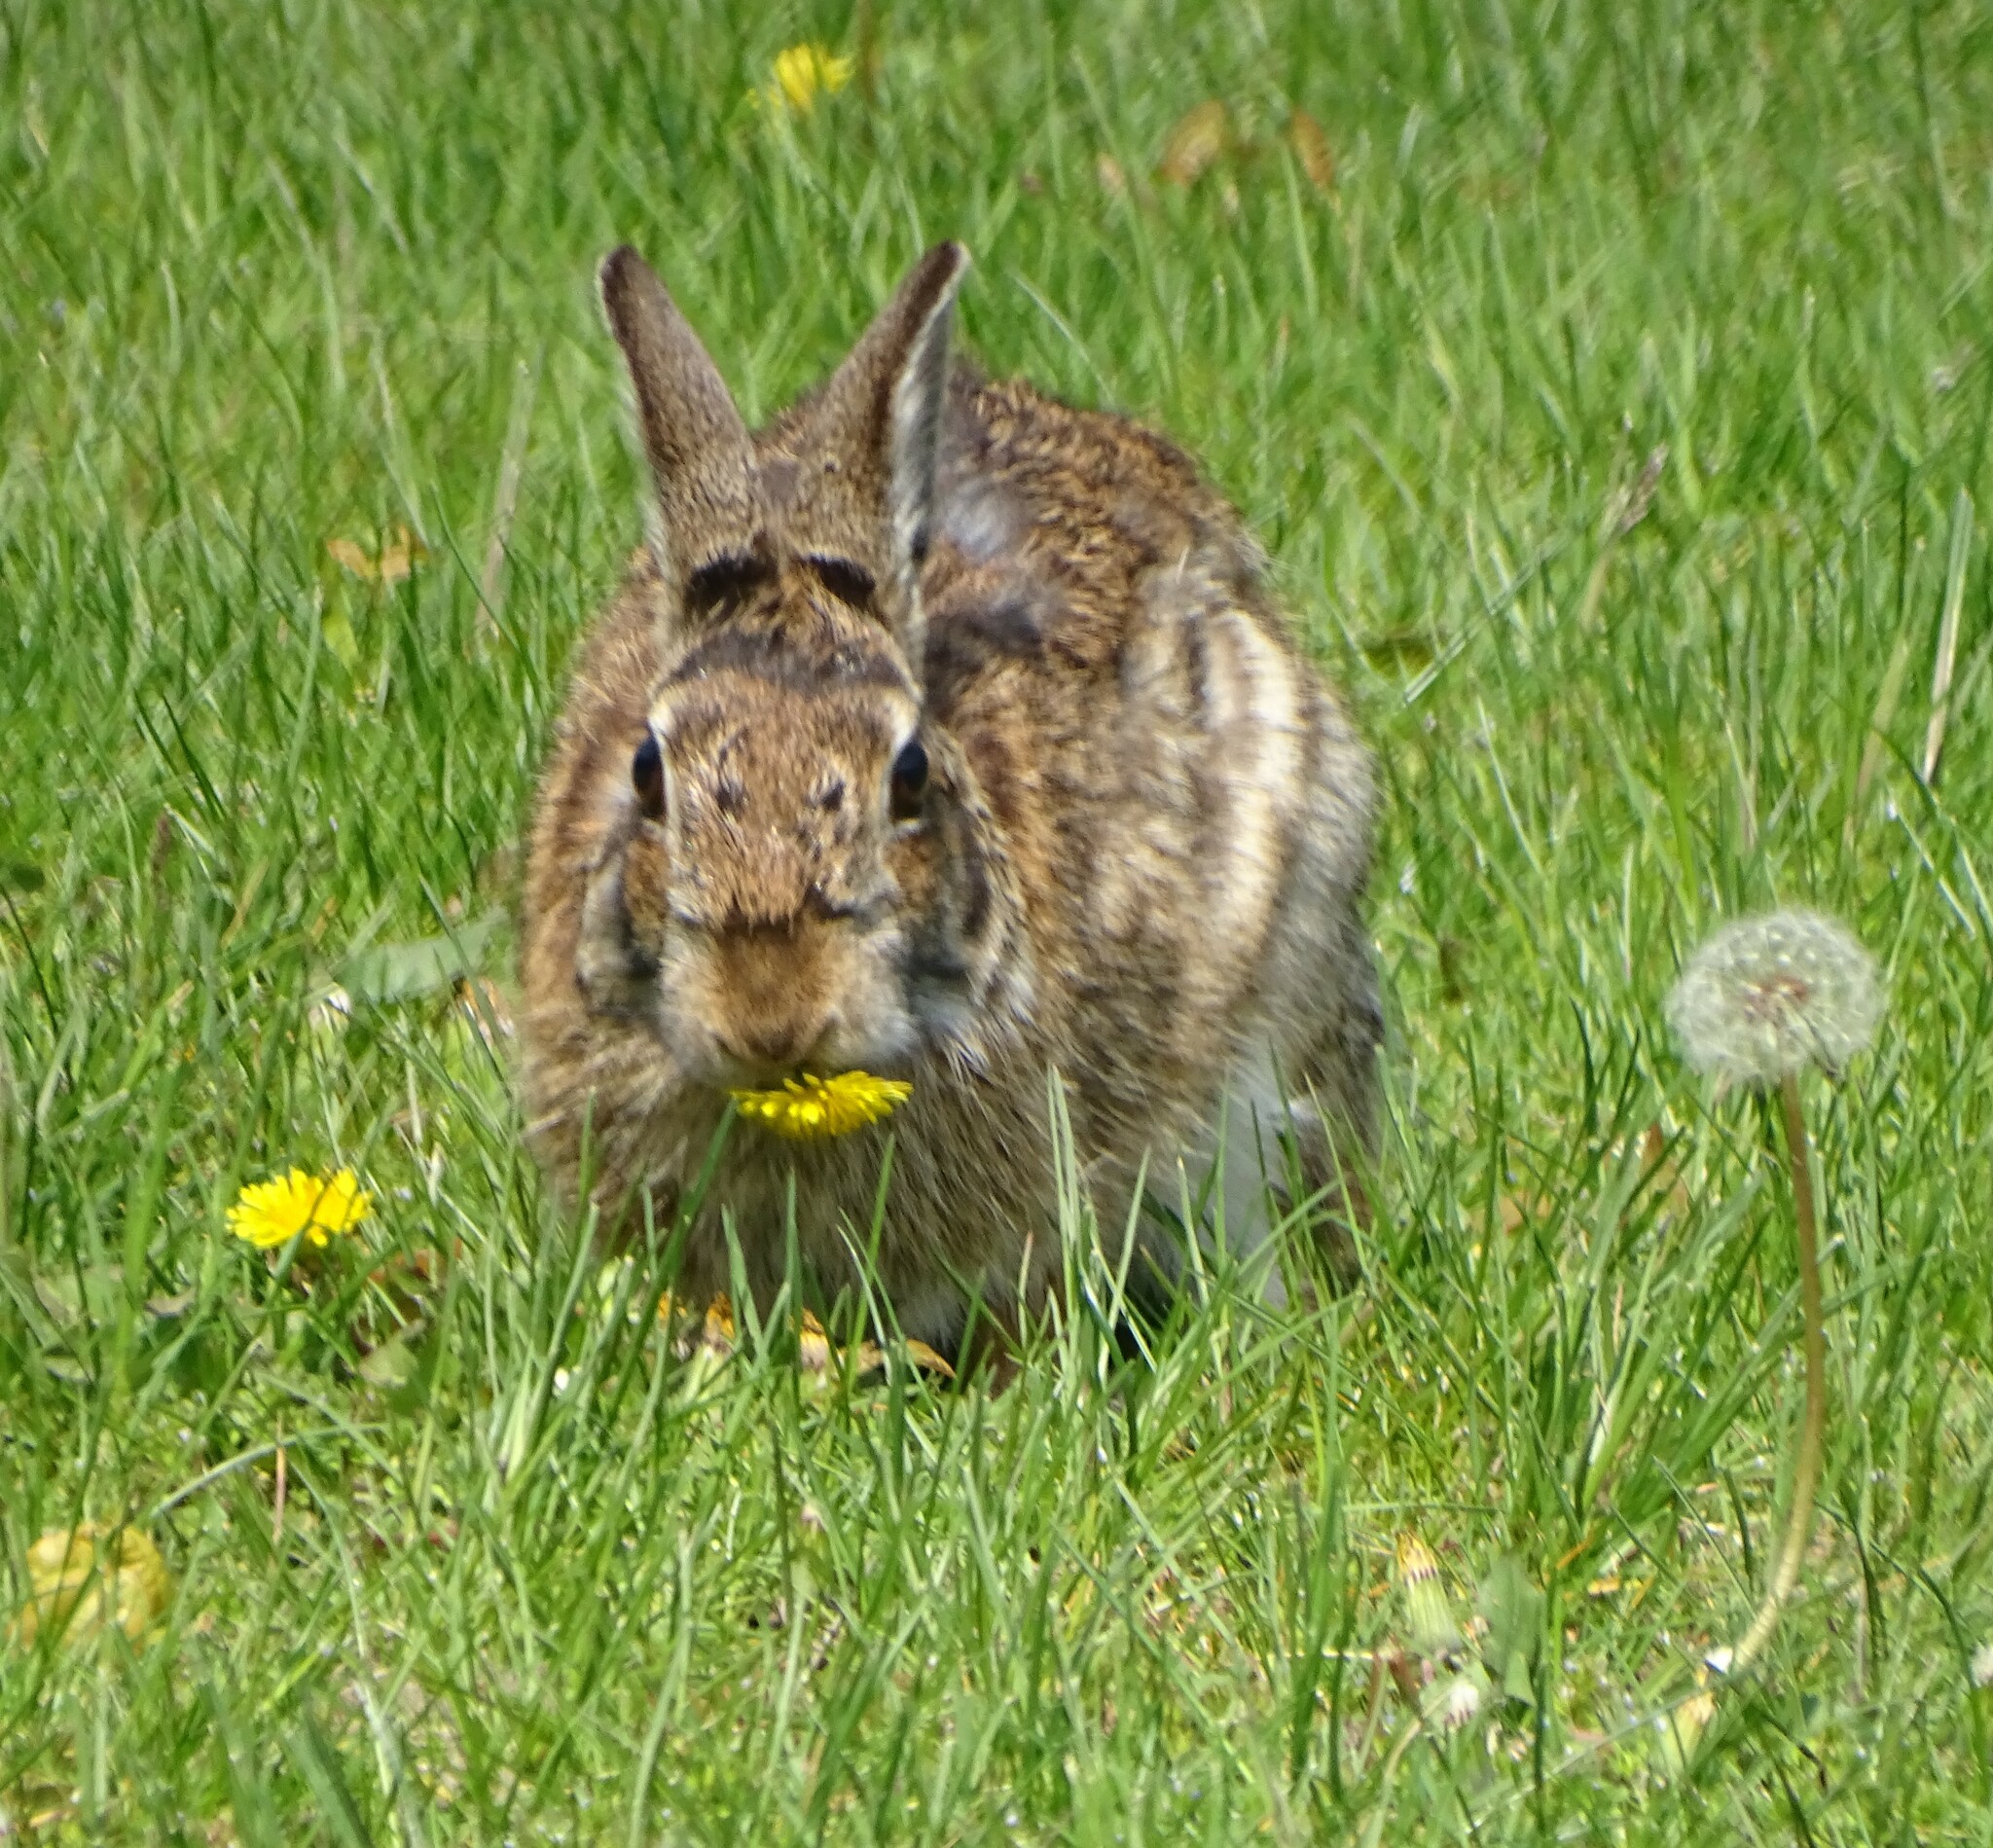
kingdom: Animalia
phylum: Chordata
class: Mammalia
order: Lagomorpha
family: Leporidae
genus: Sylvilagus
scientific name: Sylvilagus floridanus
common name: Eastern cottontail
